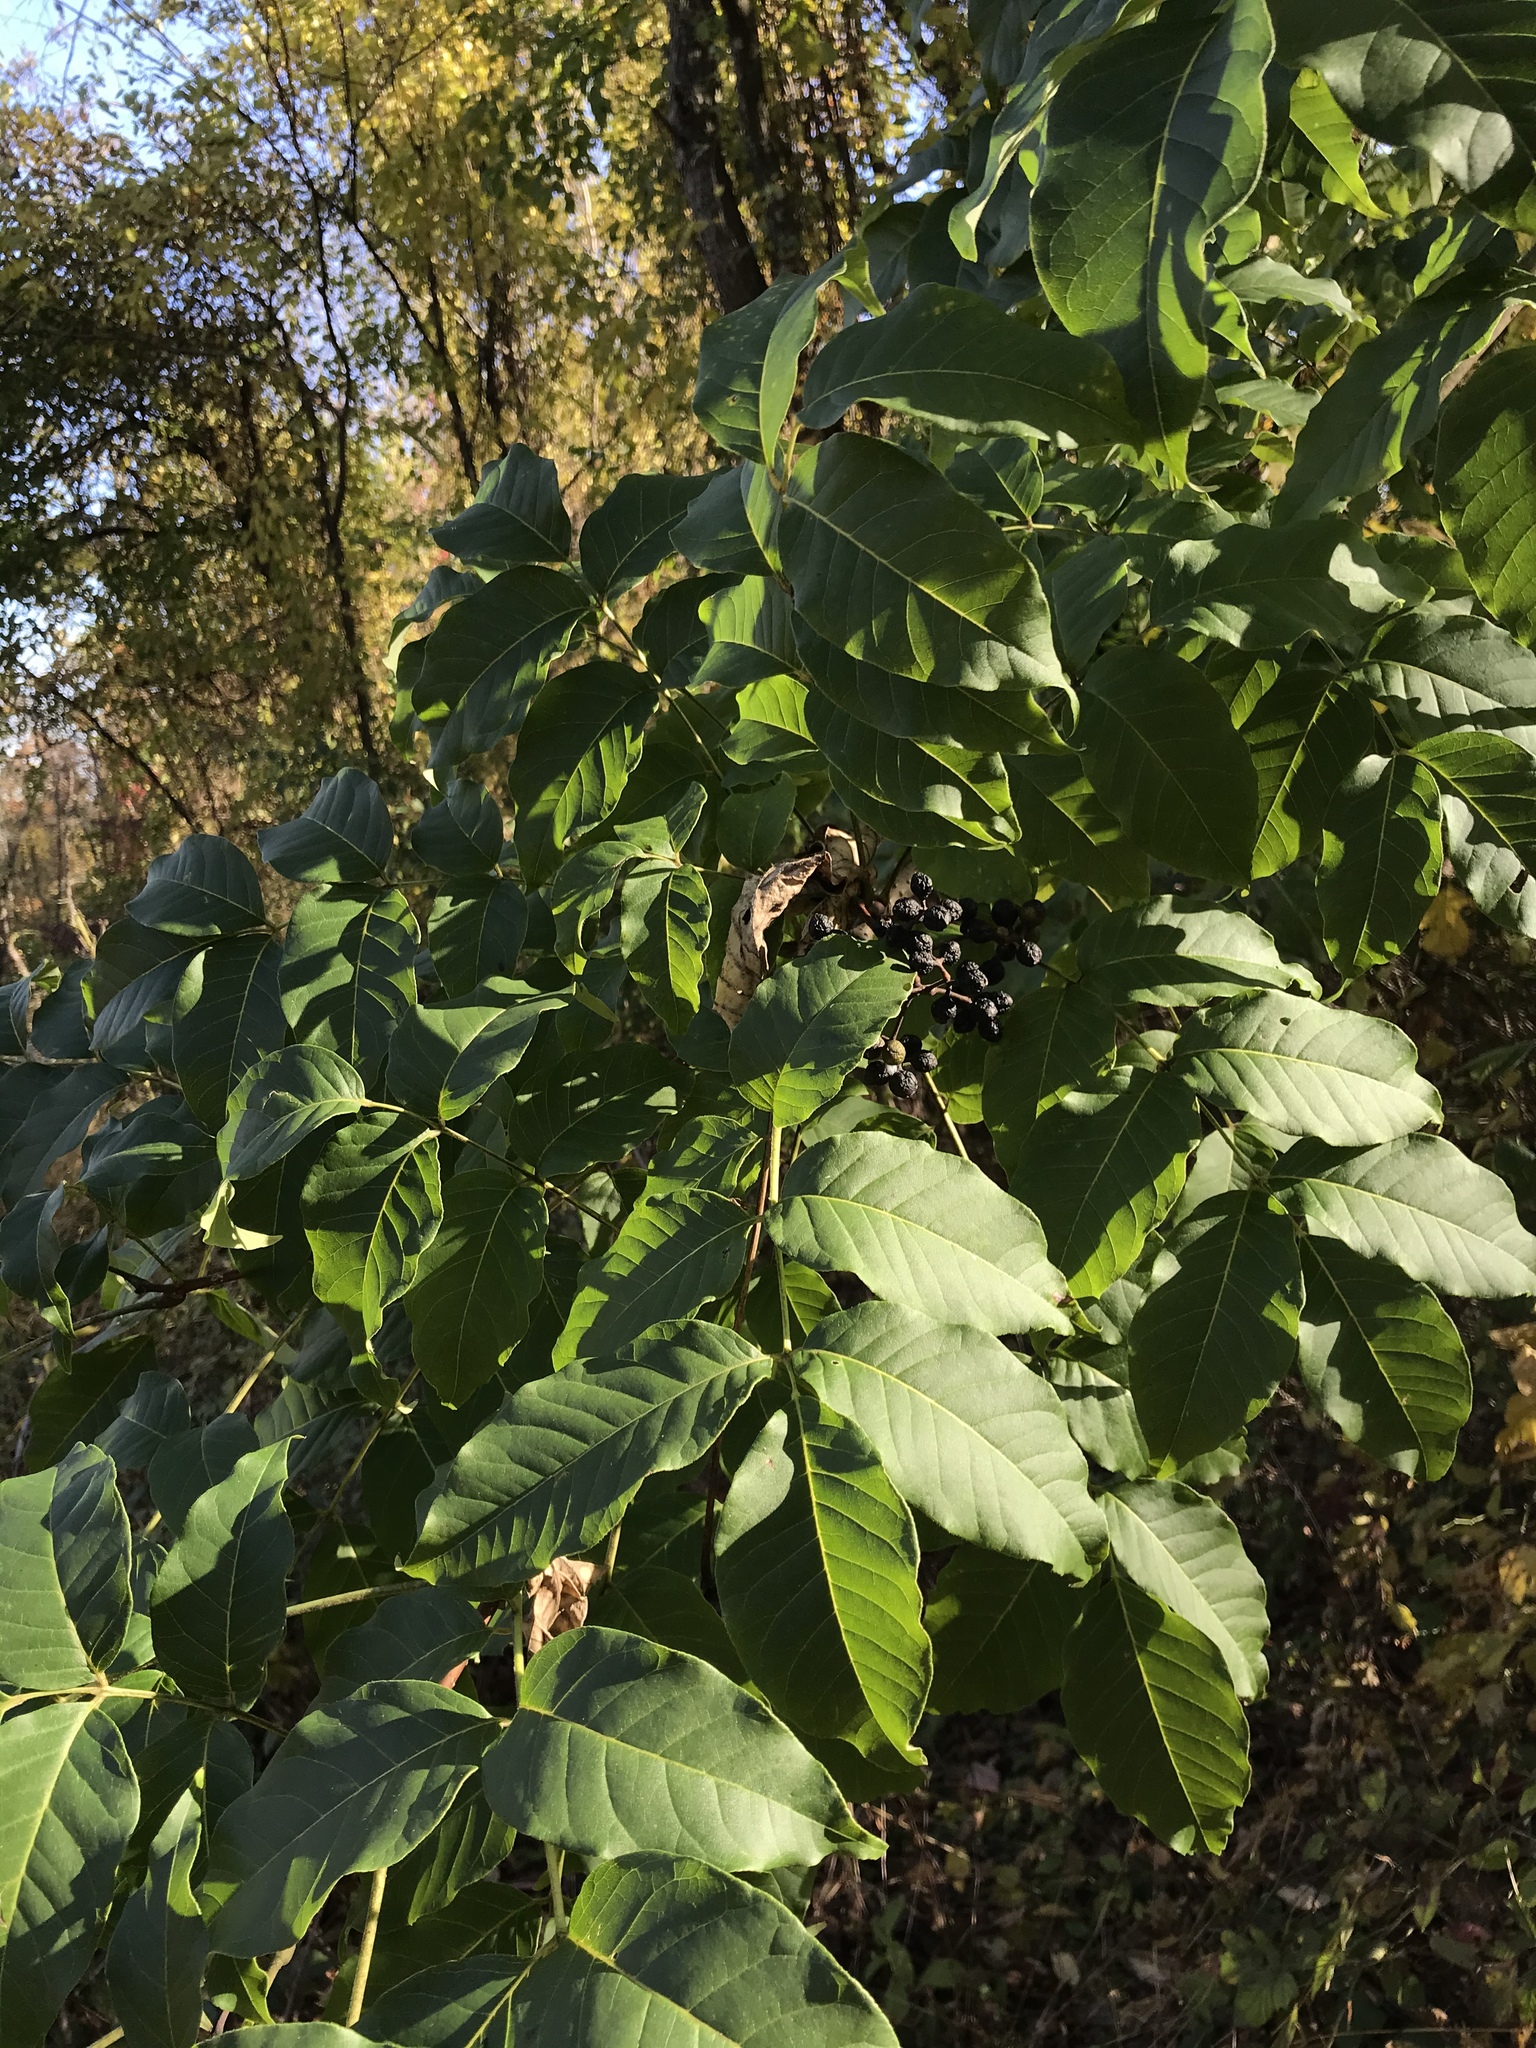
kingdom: Plantae
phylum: Tracheophyta
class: Magnoliopsida
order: Sapindales
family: Rutaceae
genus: Phellodendron
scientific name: Phellodendron amurense
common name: Amur corktree
